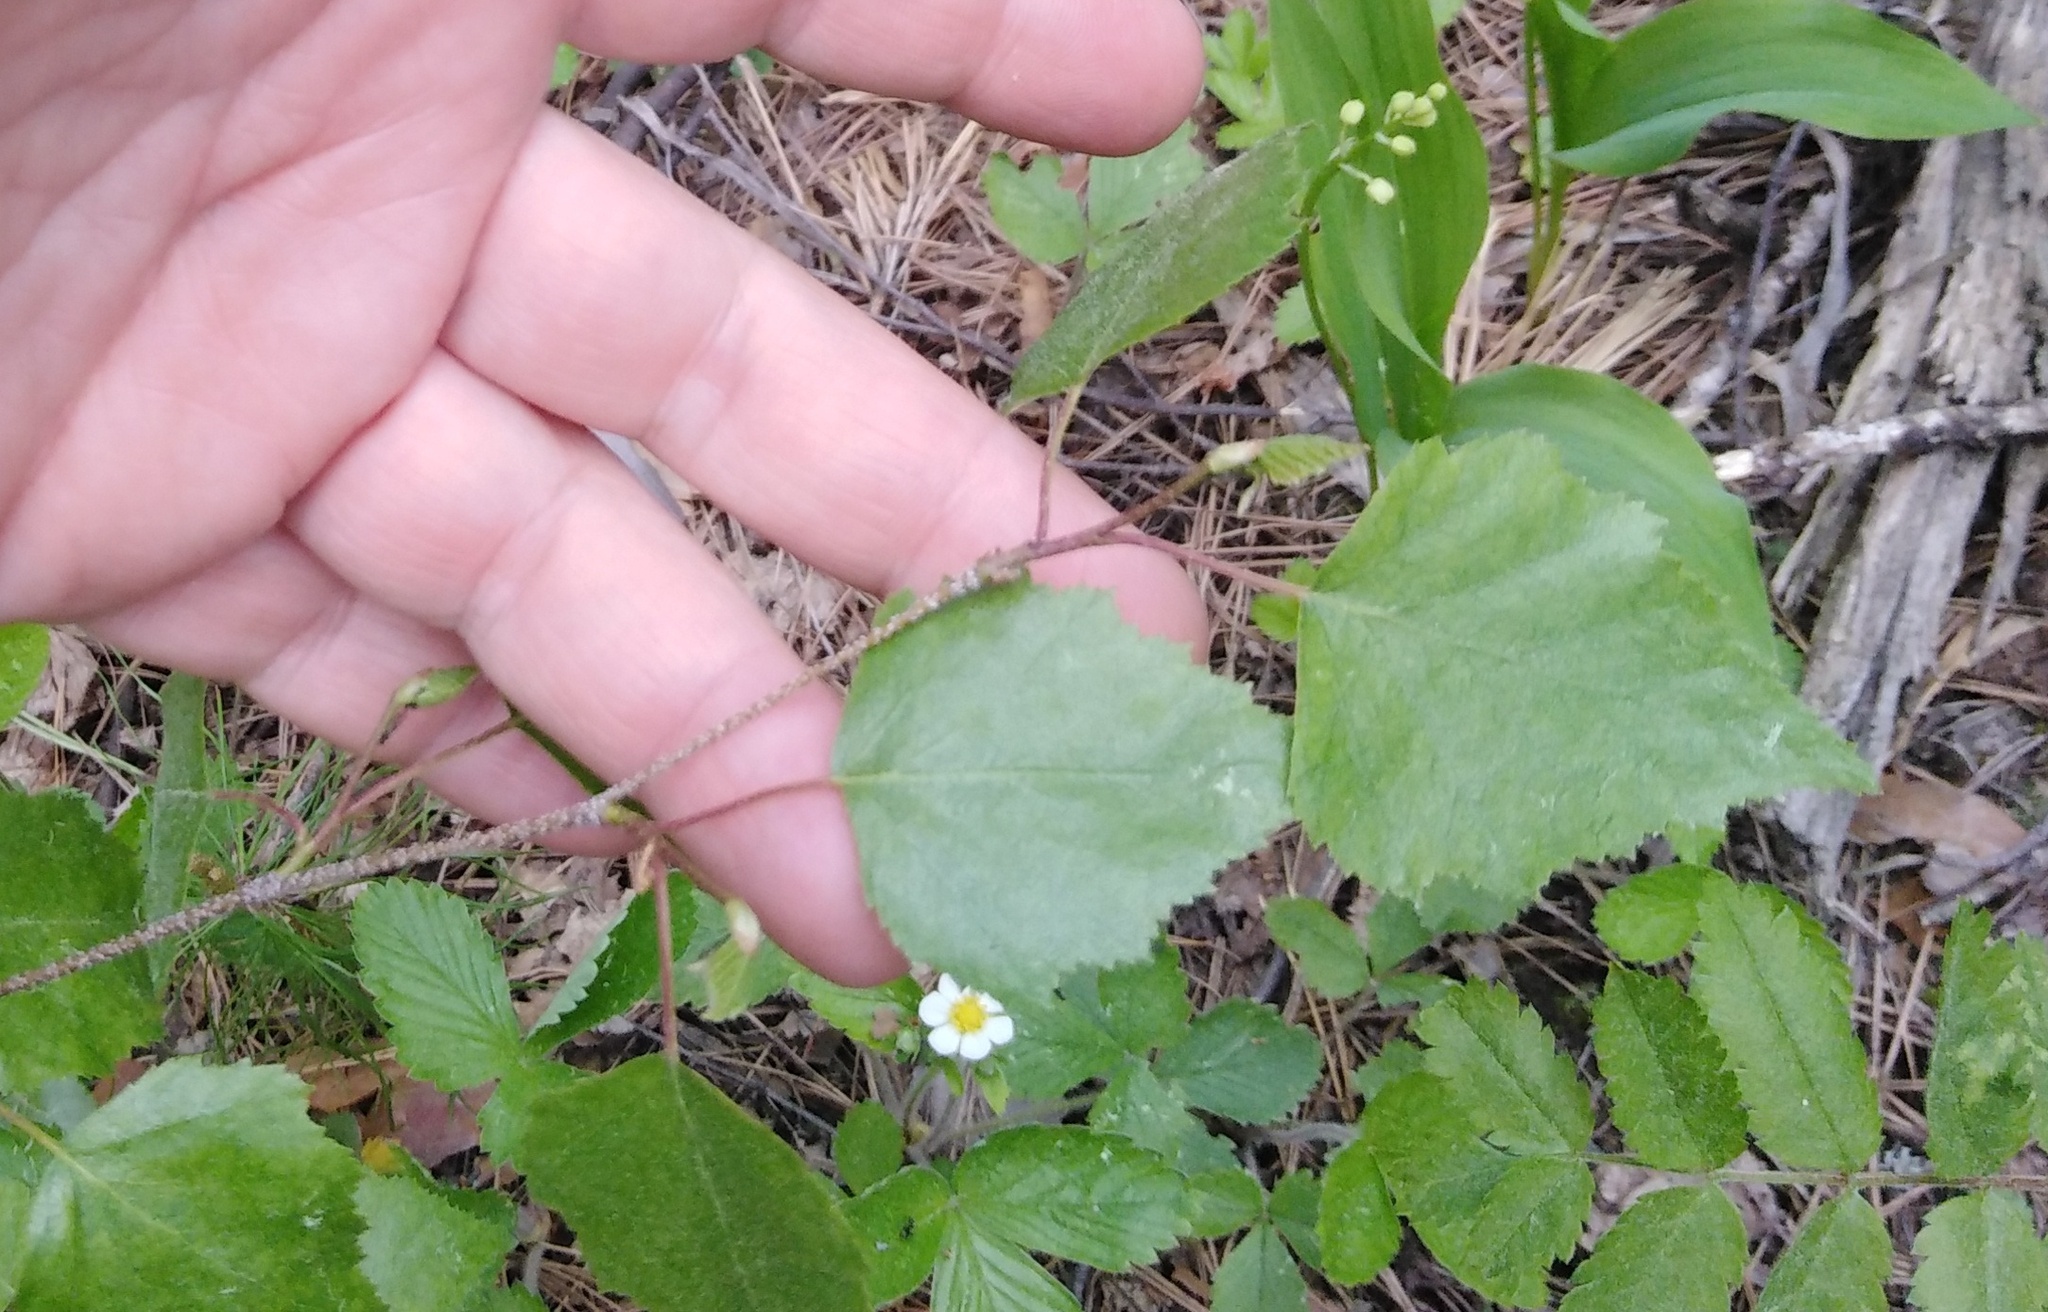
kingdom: Plantae
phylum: Tracheophyta
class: Magnoliopsida
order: Fagales
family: Betulaceae
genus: Betula
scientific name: Betula pendula
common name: Silver birch
